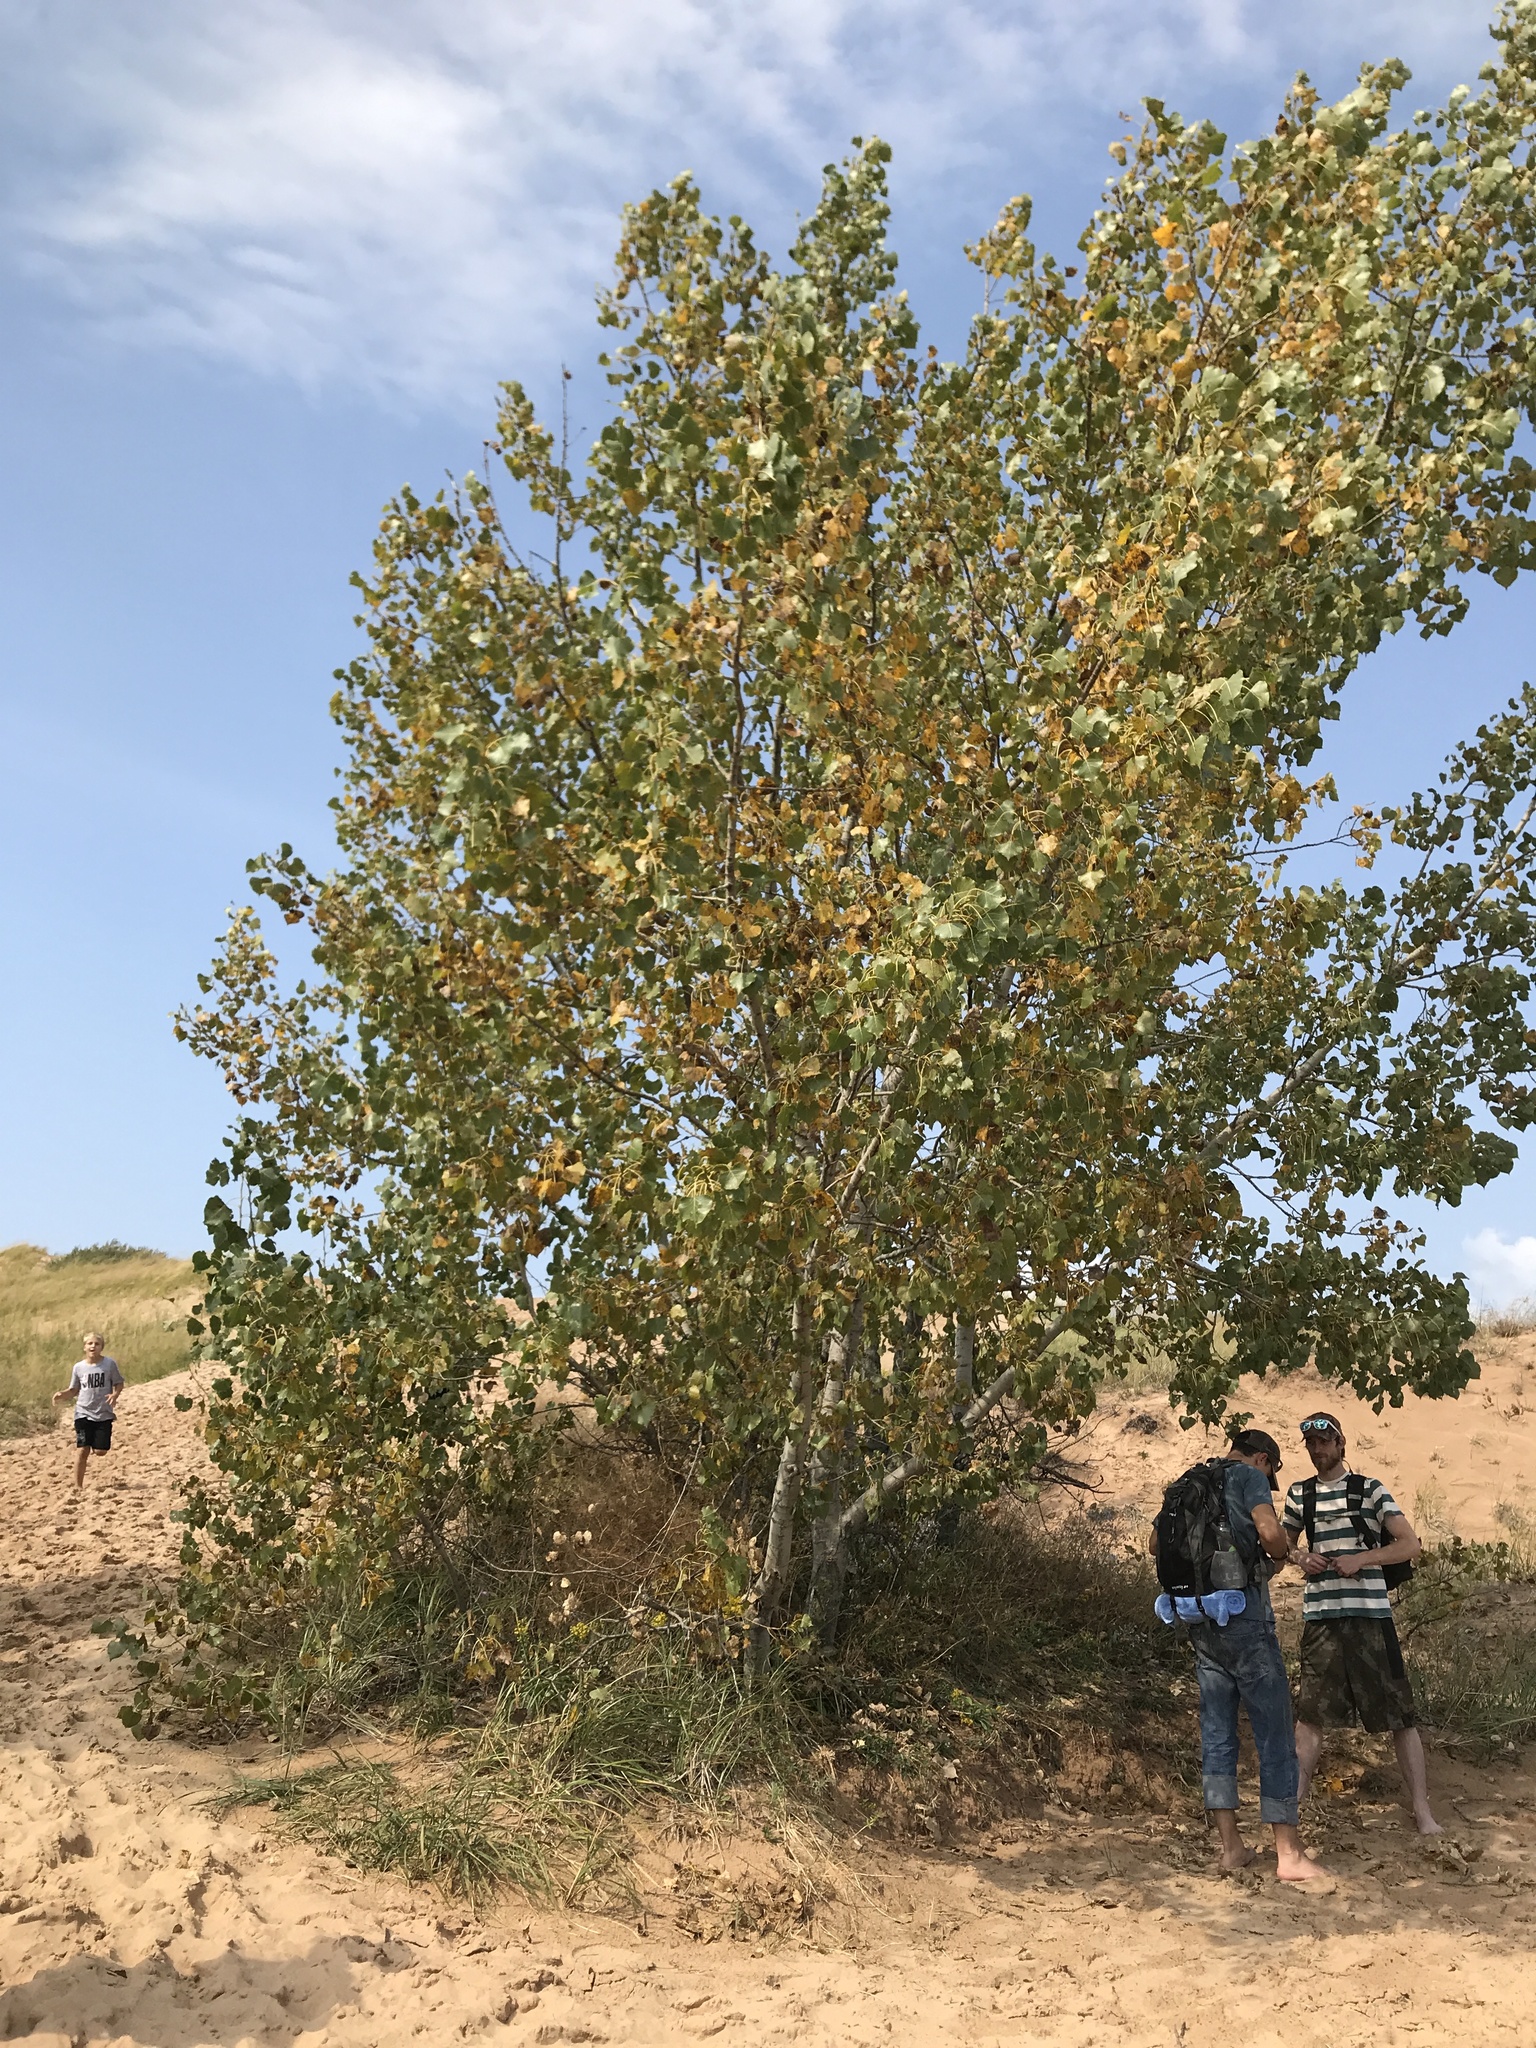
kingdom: Plantae
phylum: Tracheophyta
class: Magnoliopsida
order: Malpighiales
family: Salicaceae
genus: Populus
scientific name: Populus deltoides
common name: Eastern cottonwood
